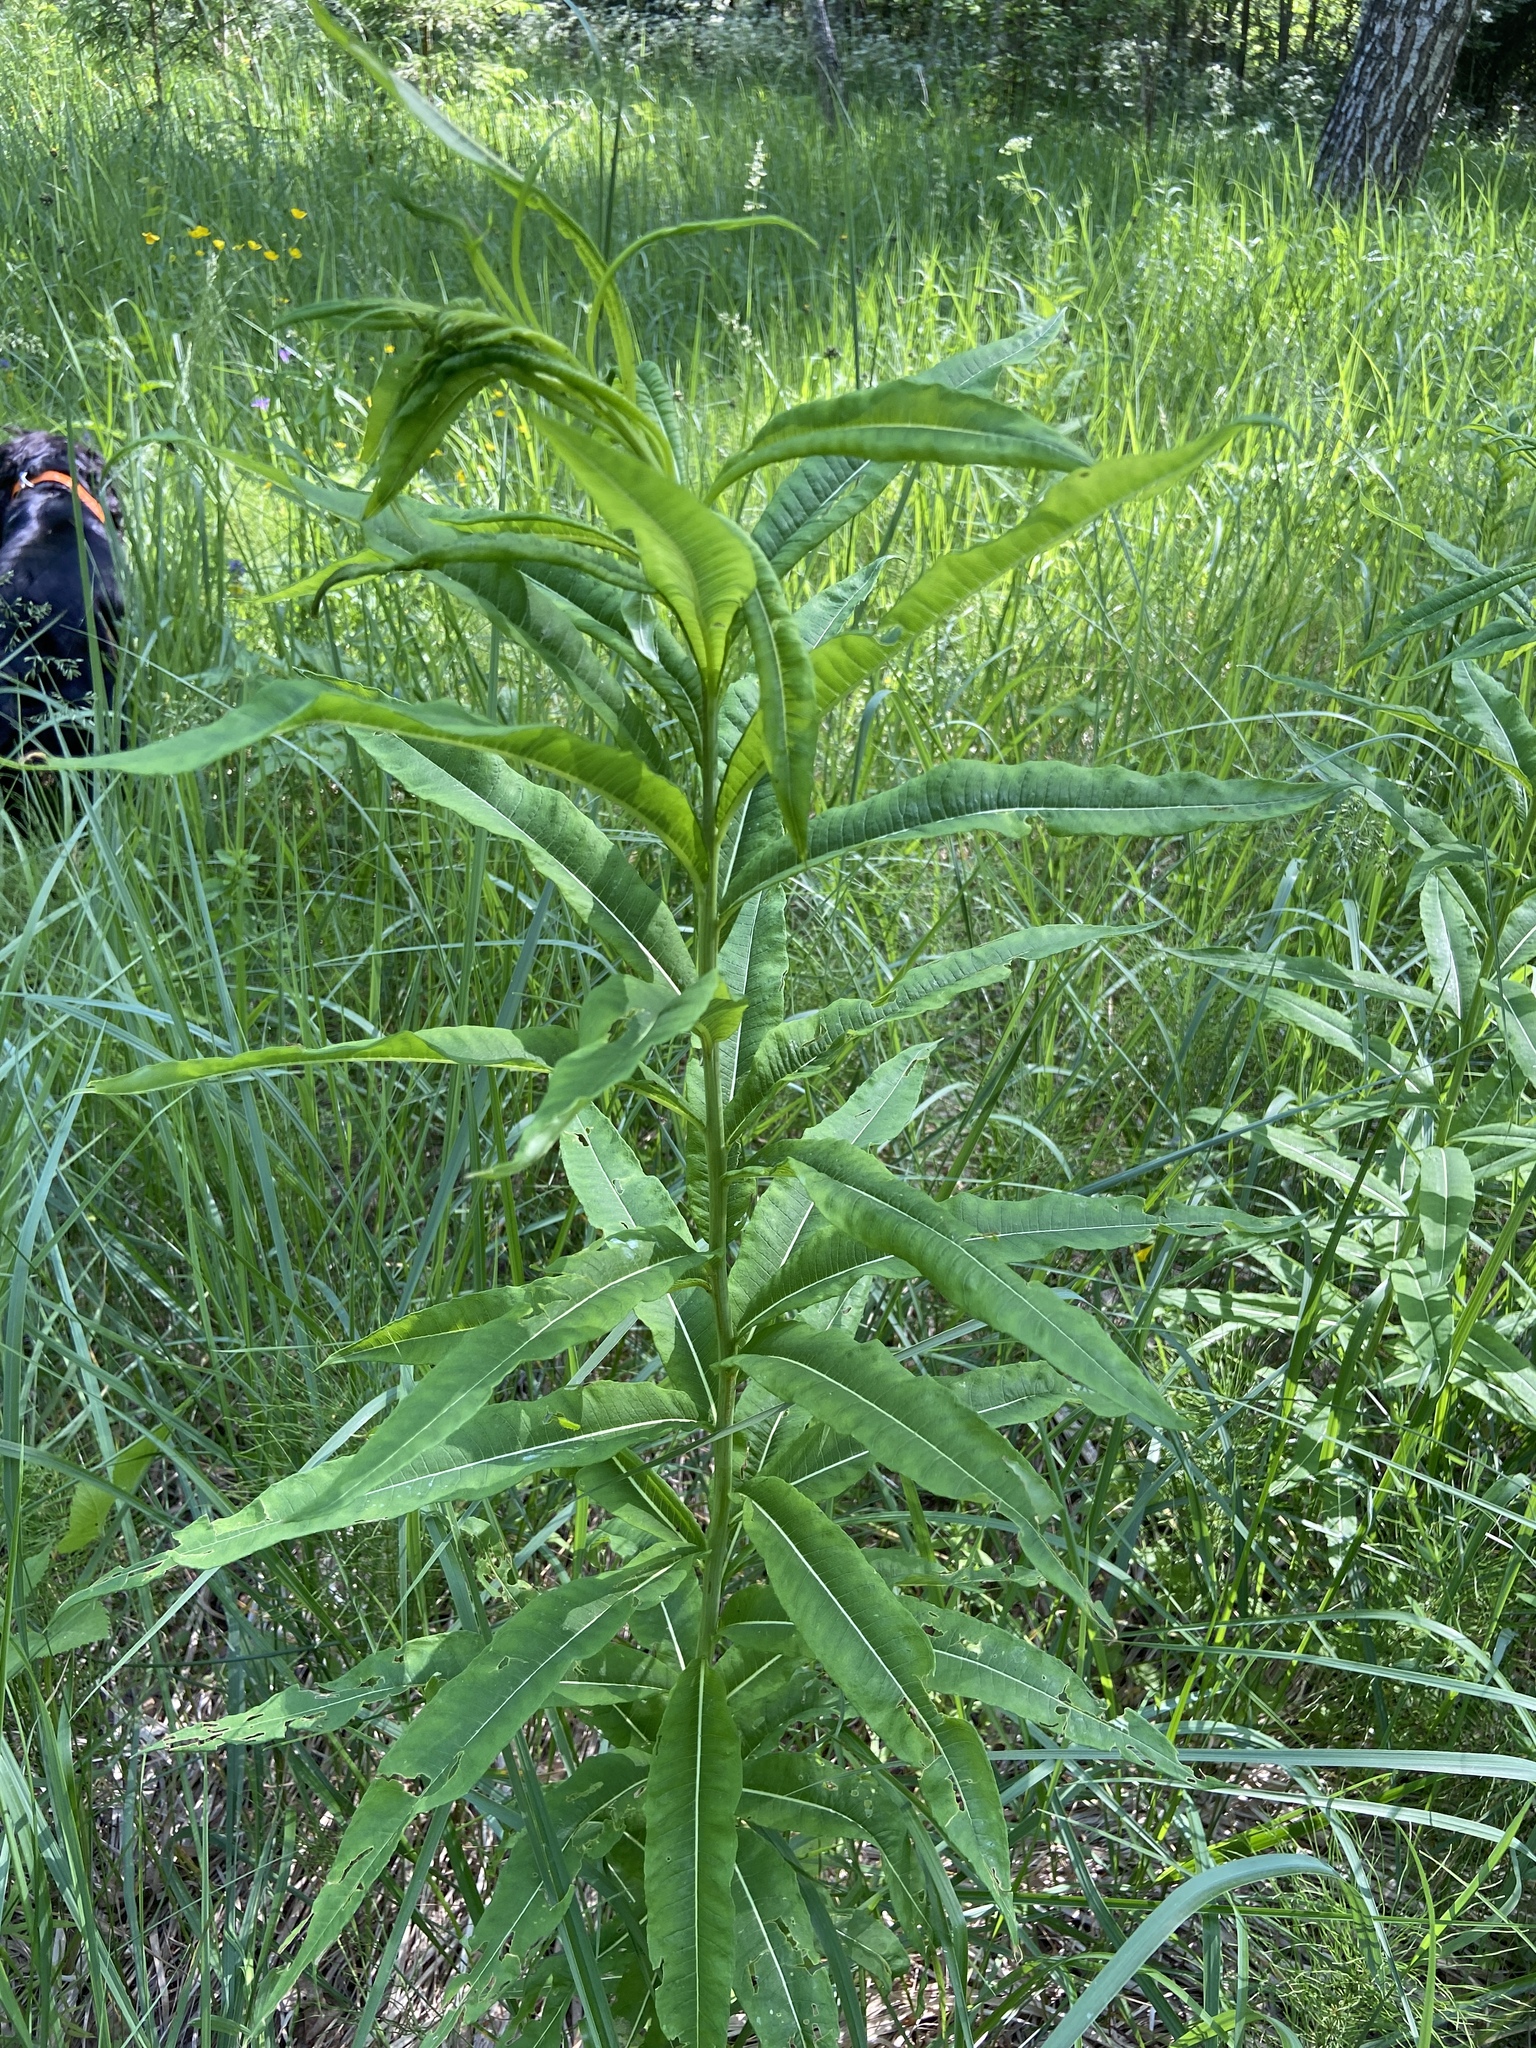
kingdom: Plantae
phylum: Tracheophyta
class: Magnoliopsida
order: Myrtales
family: Onagraceae
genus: Chamaenerion
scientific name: Chamaenerion angustifolium
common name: Fireweed
